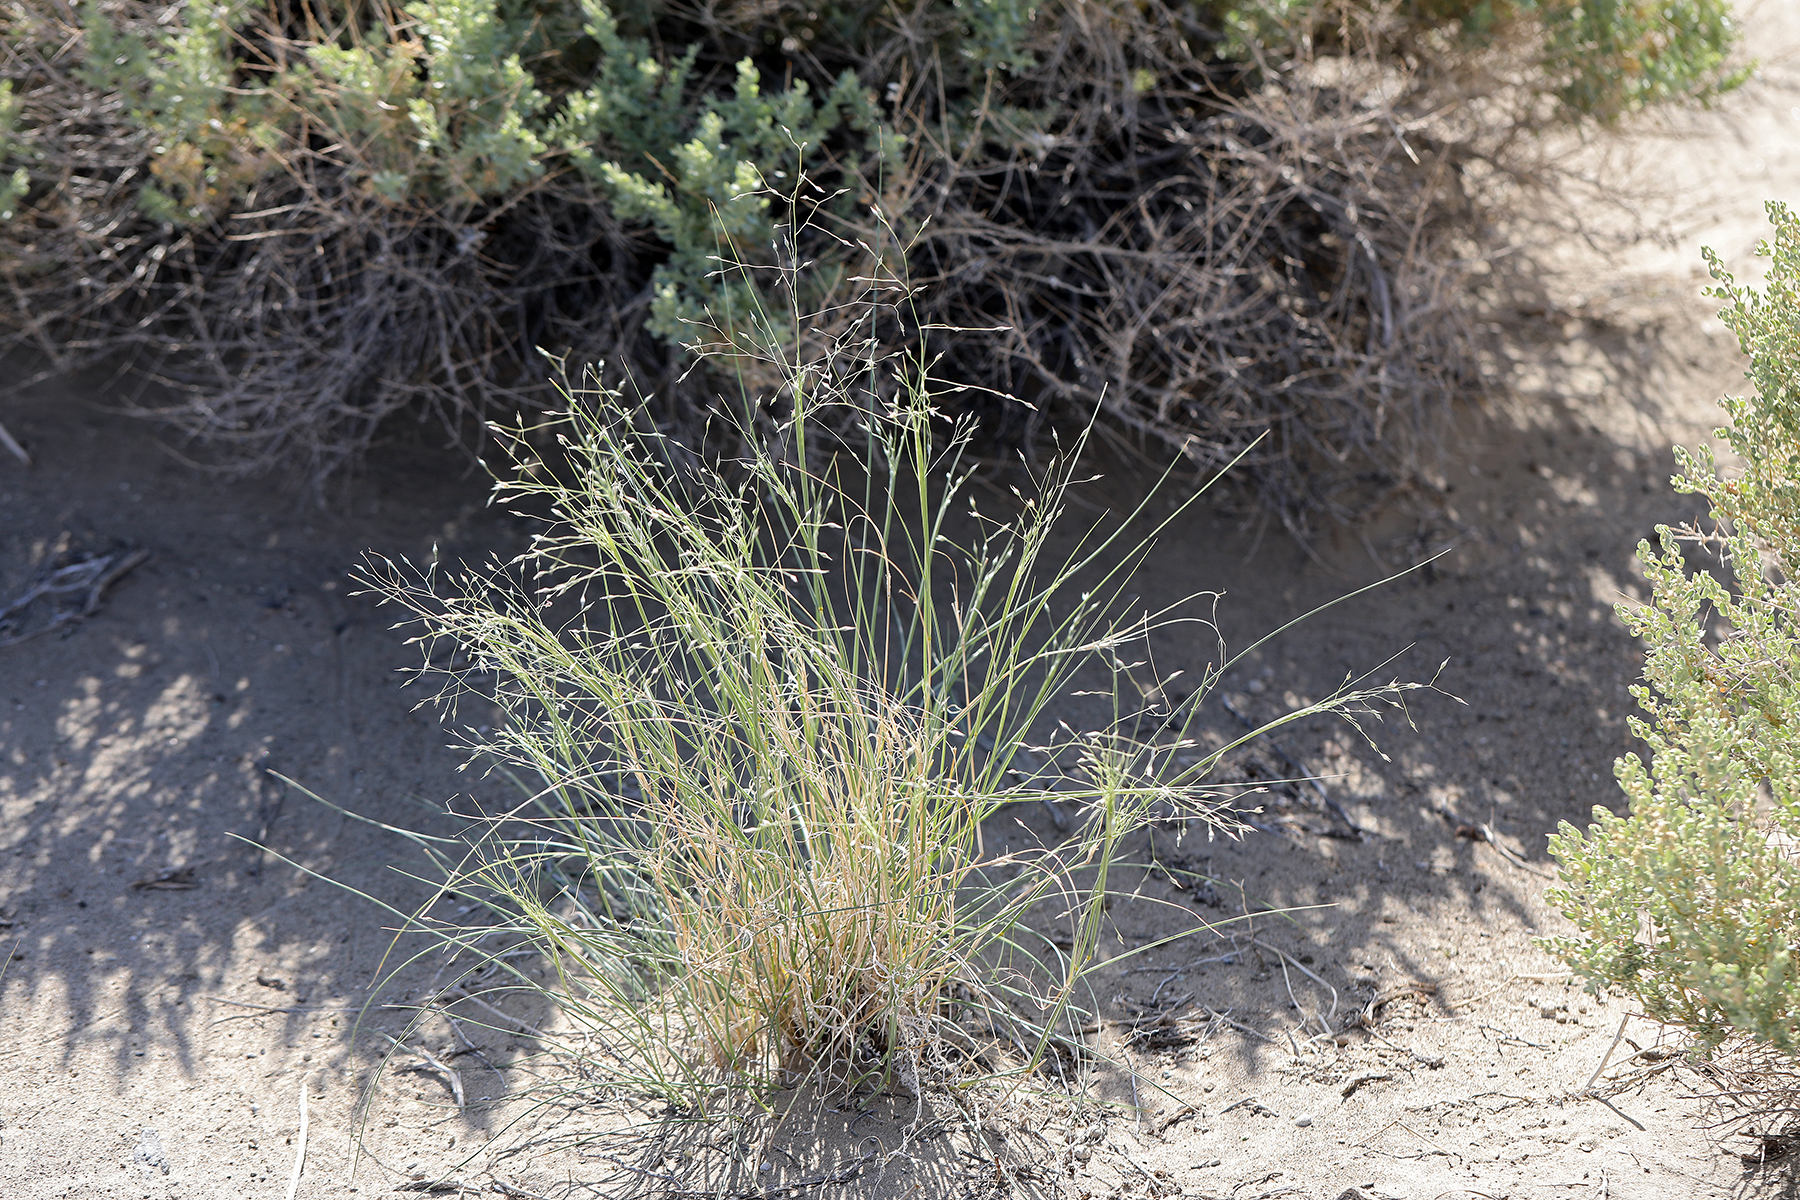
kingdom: Plantae
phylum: Tracheophyta
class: Liliopsida
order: Poales
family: Poaceae
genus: Eriocoma
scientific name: Eriocoma hymenoides
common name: Indian mountain ricegrass
